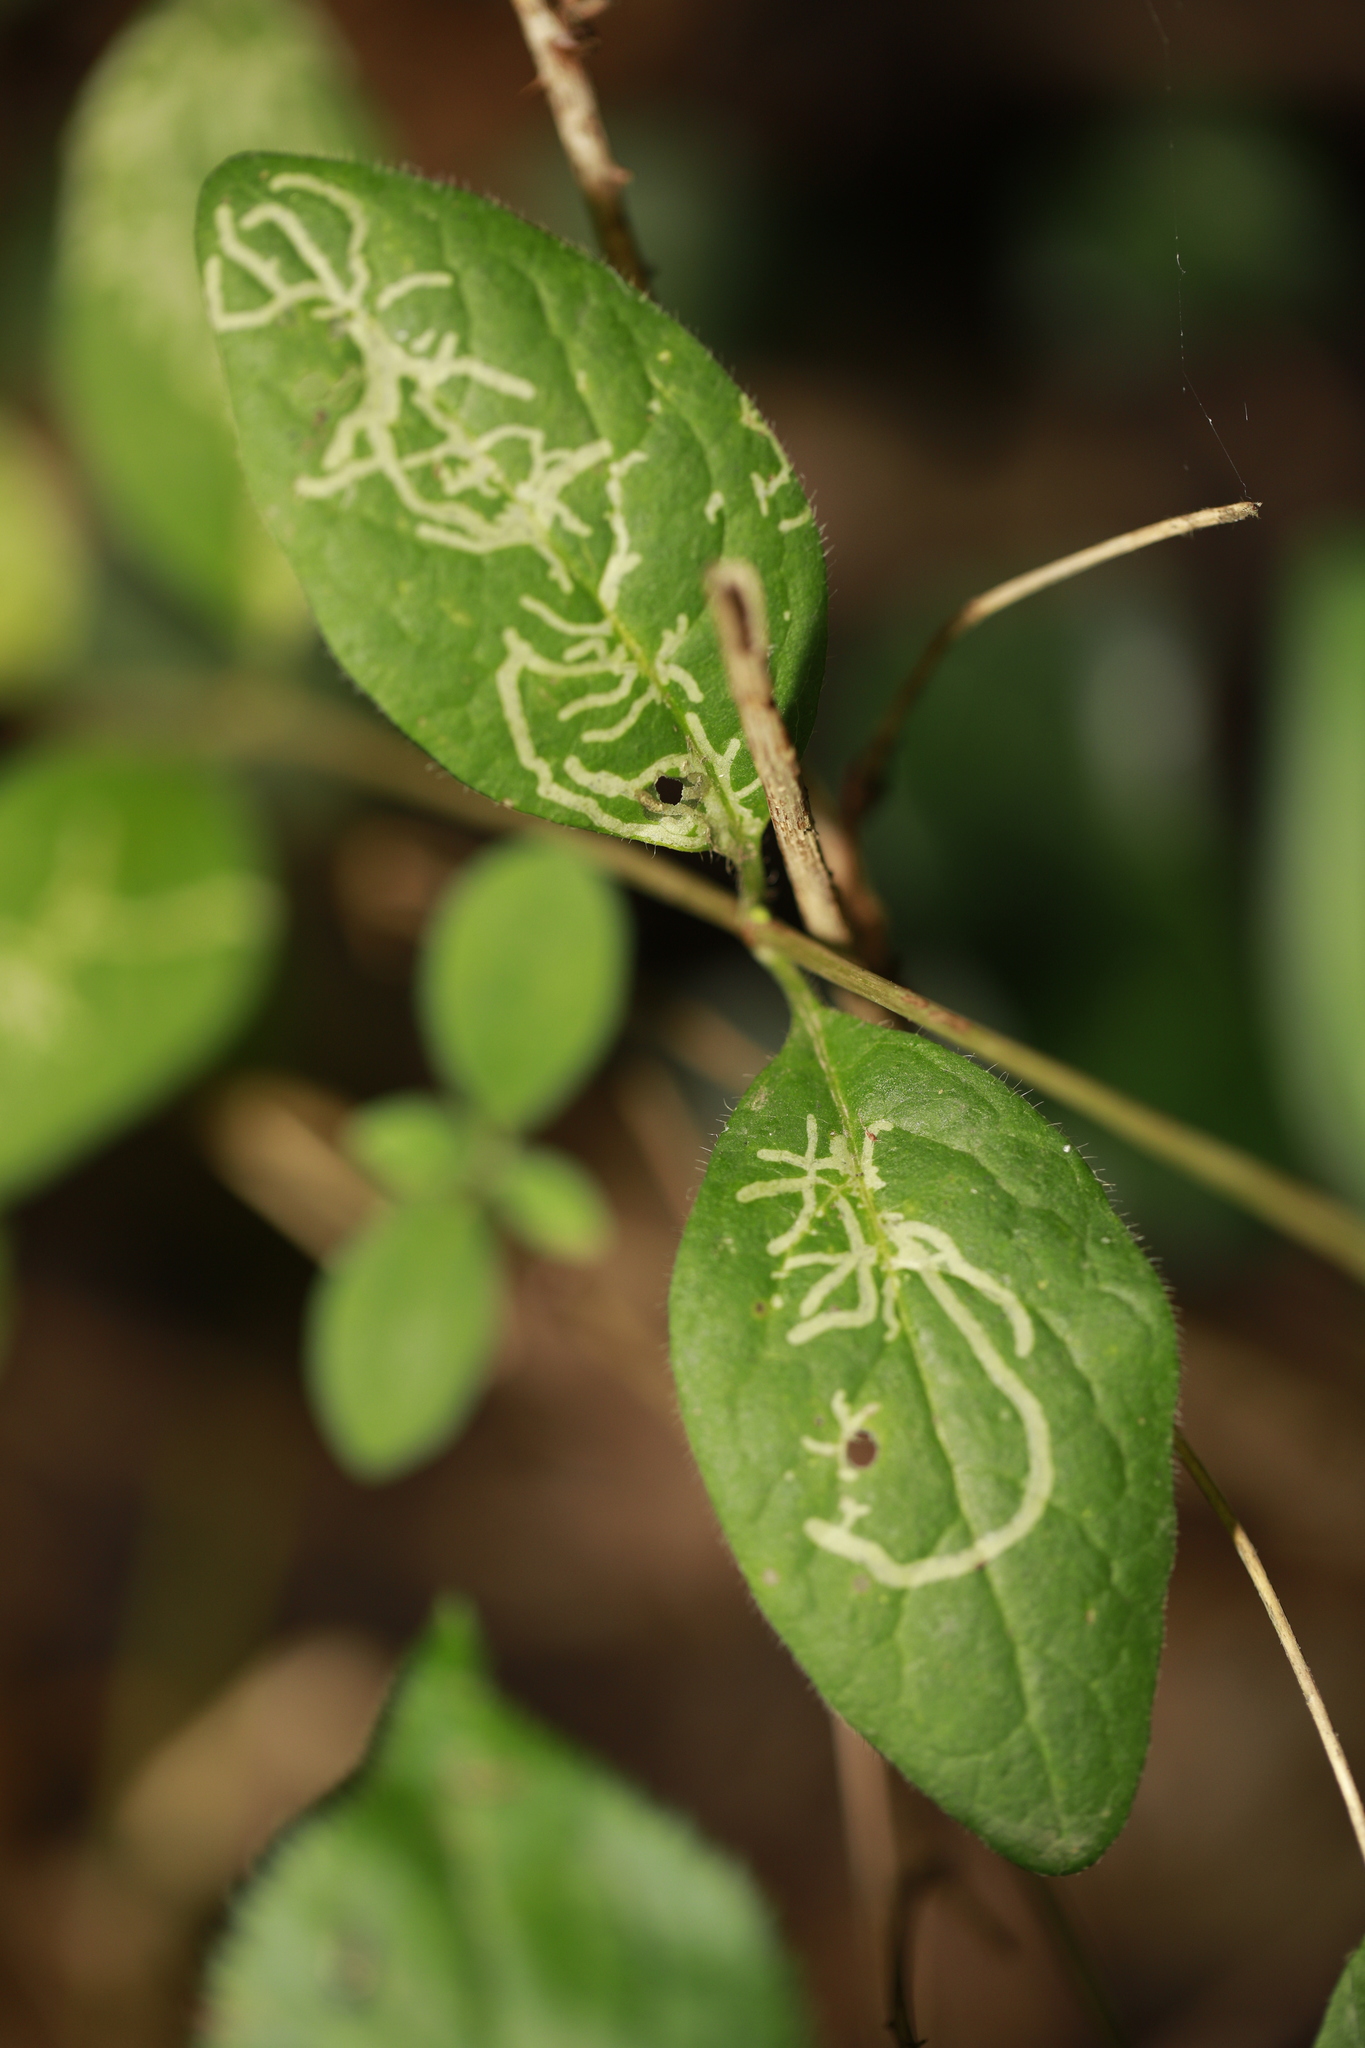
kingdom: Animalia
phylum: Arthropoda
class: Insecta
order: Diptera
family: Agromyzidae
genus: Phytomyza
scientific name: Phytomyza aprilina
